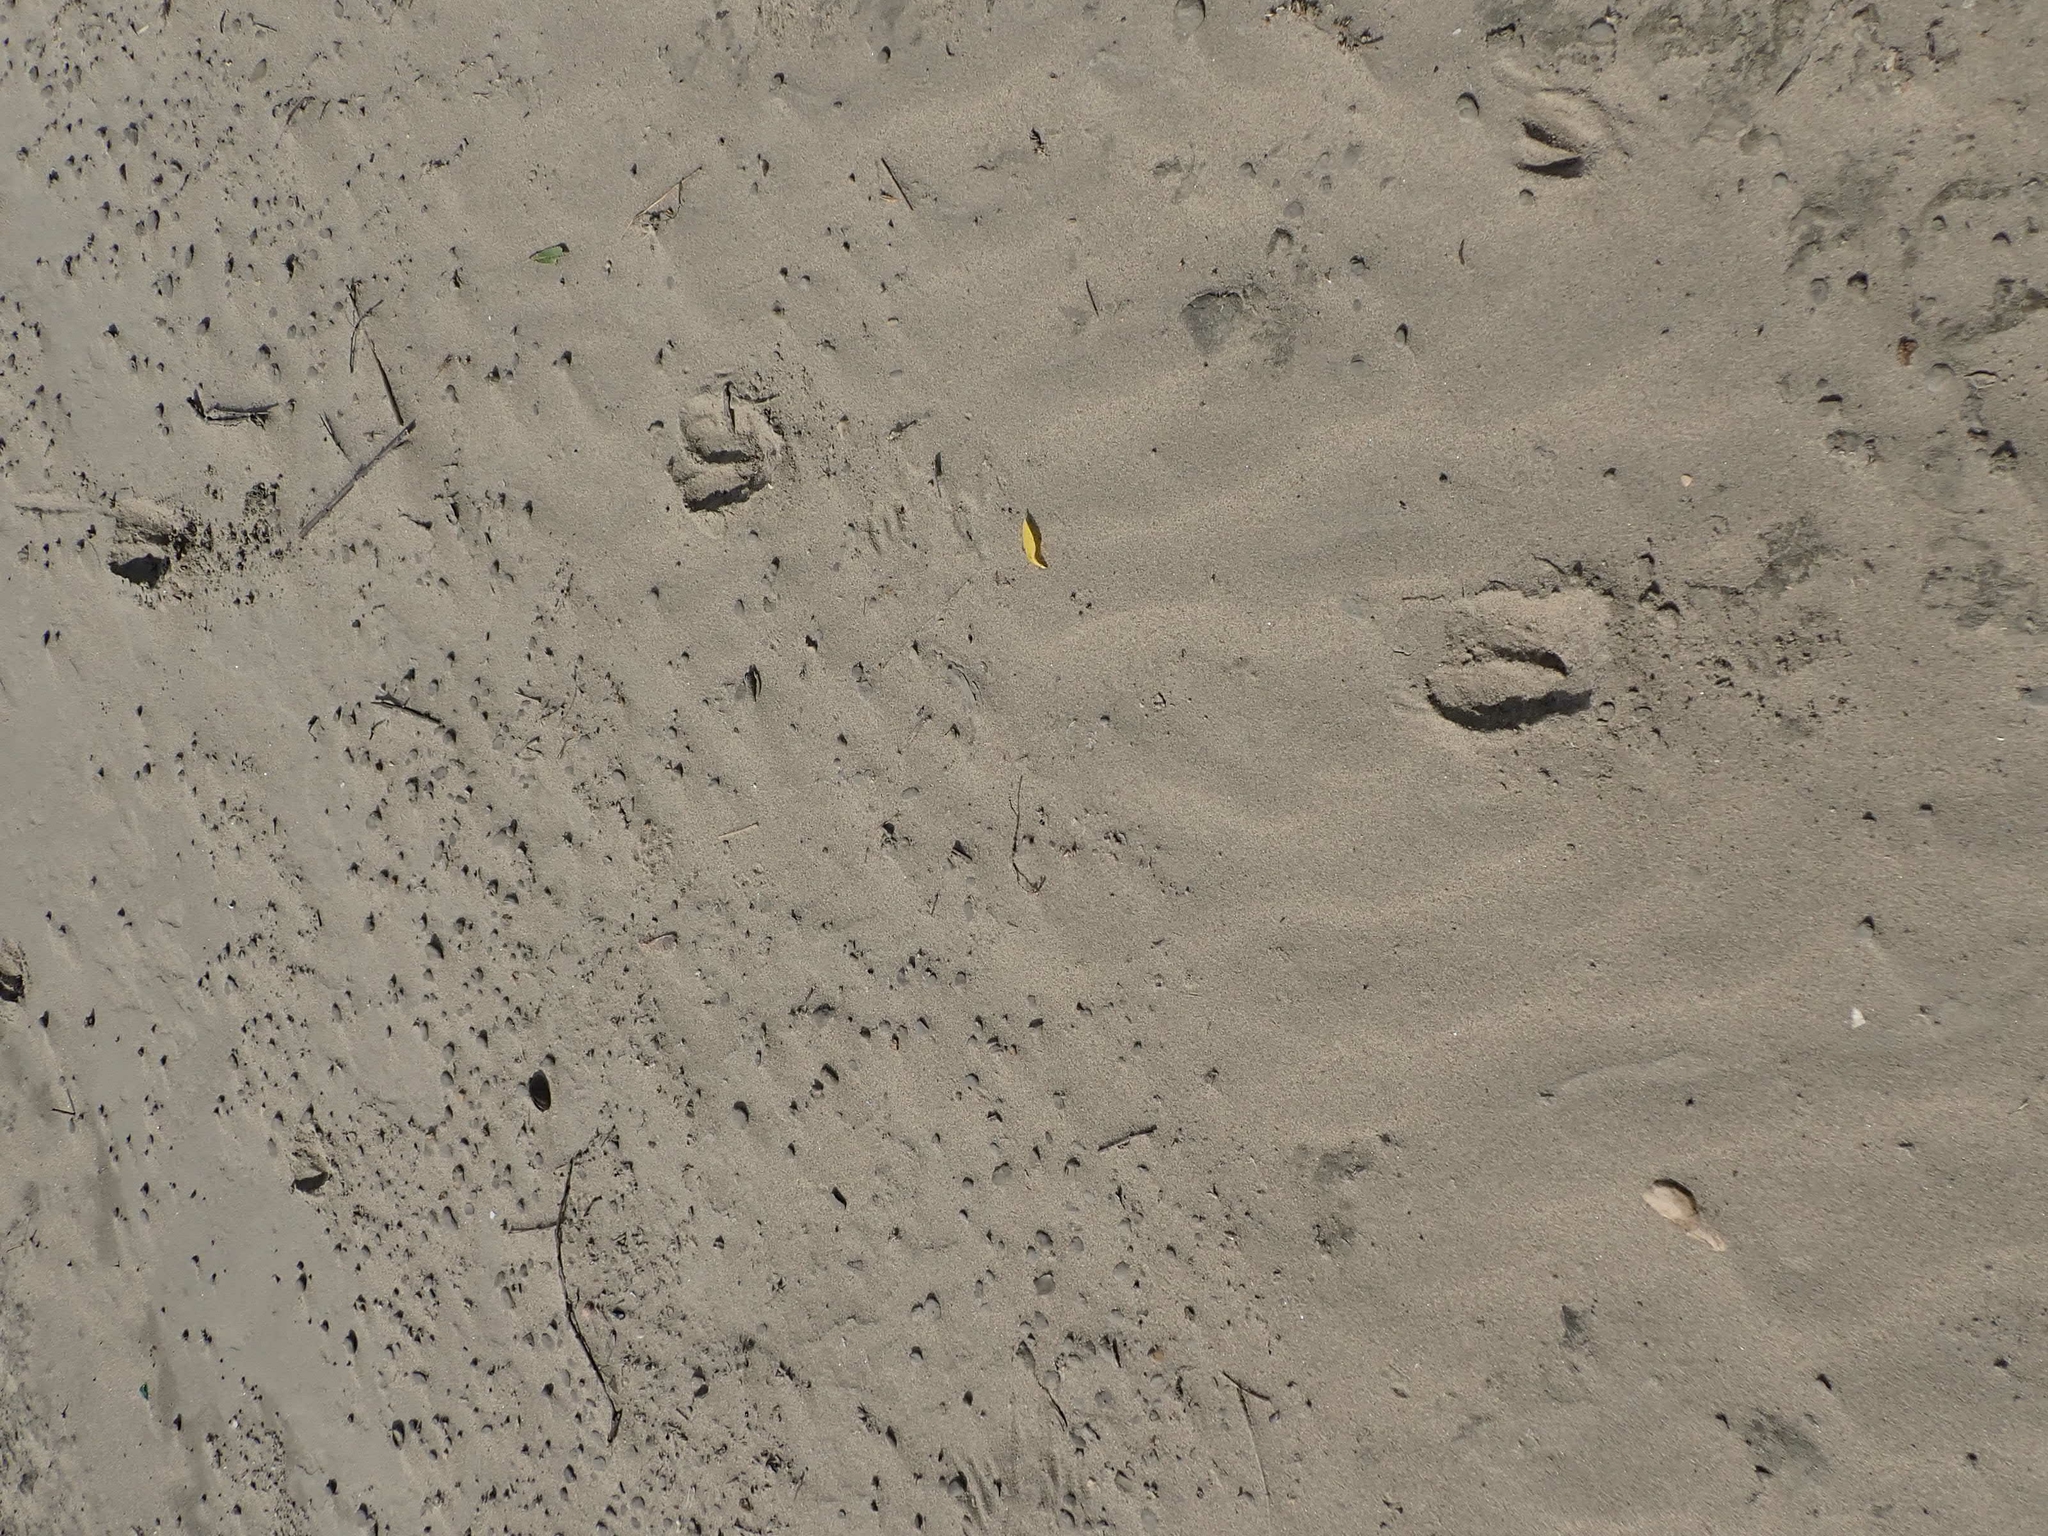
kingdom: Animalia
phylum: Chordata
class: Mammalia
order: Artiodactyla
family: Cervidae
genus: Odocoileus
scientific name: Odocoileus virginianus
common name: White-tailed deer
